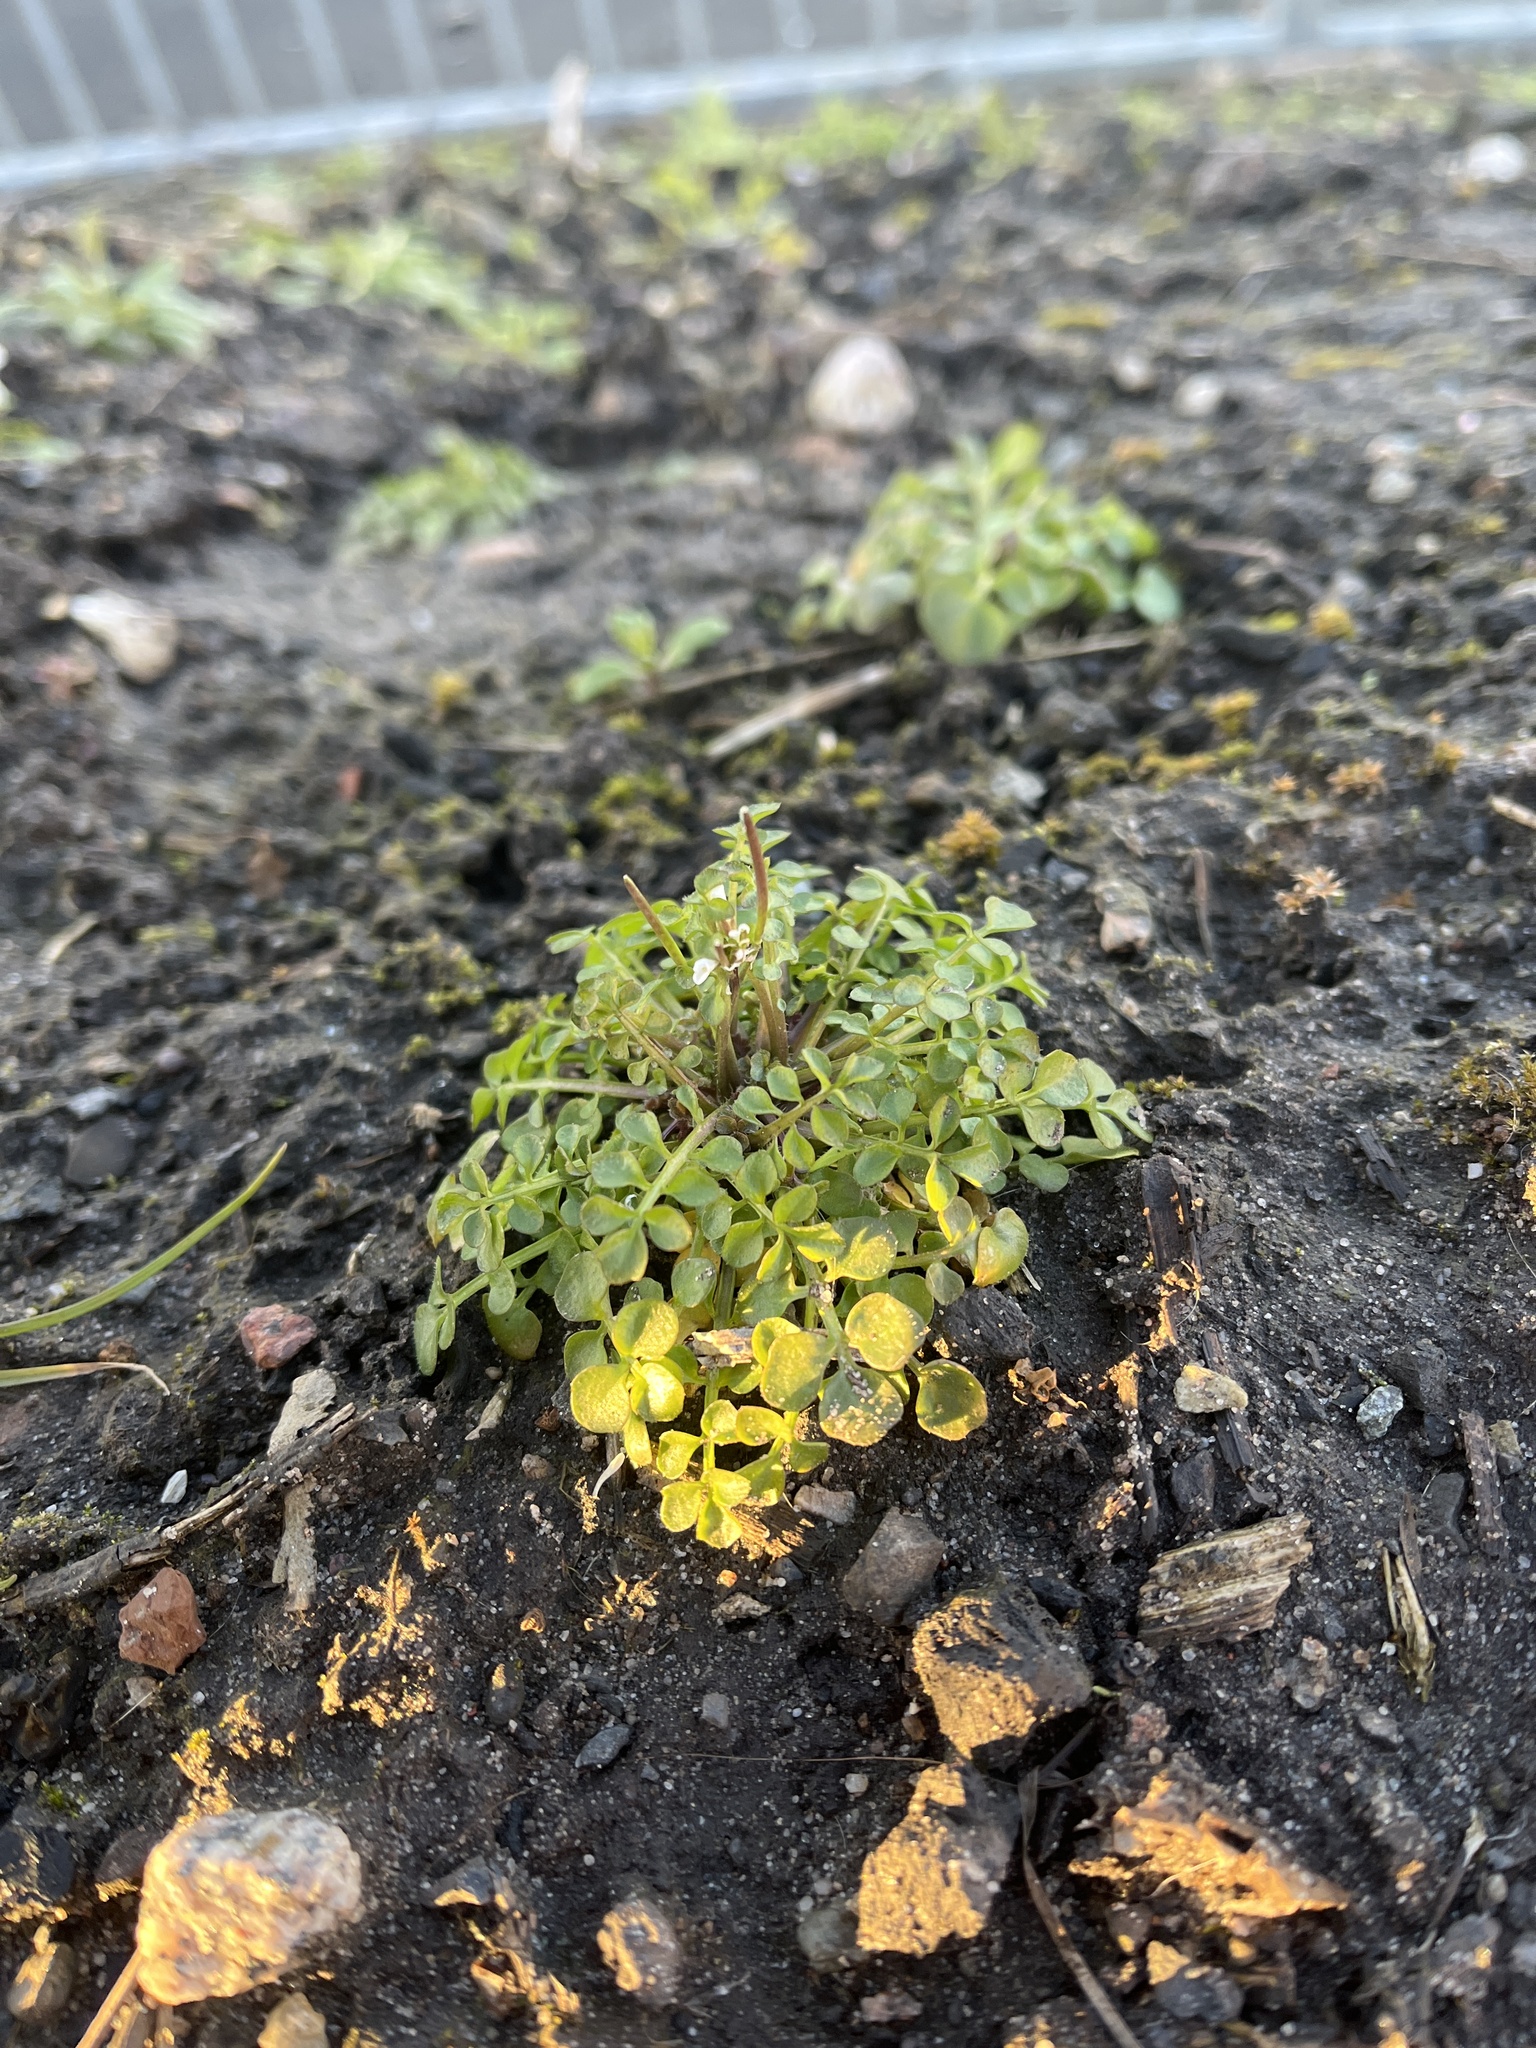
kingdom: Plantae
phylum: Tracheophyta
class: Magnoliopsida
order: Brassicales
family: Brassicaceae
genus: Cardamine
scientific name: Cardamine hirsuta
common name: Hairy bittercress
